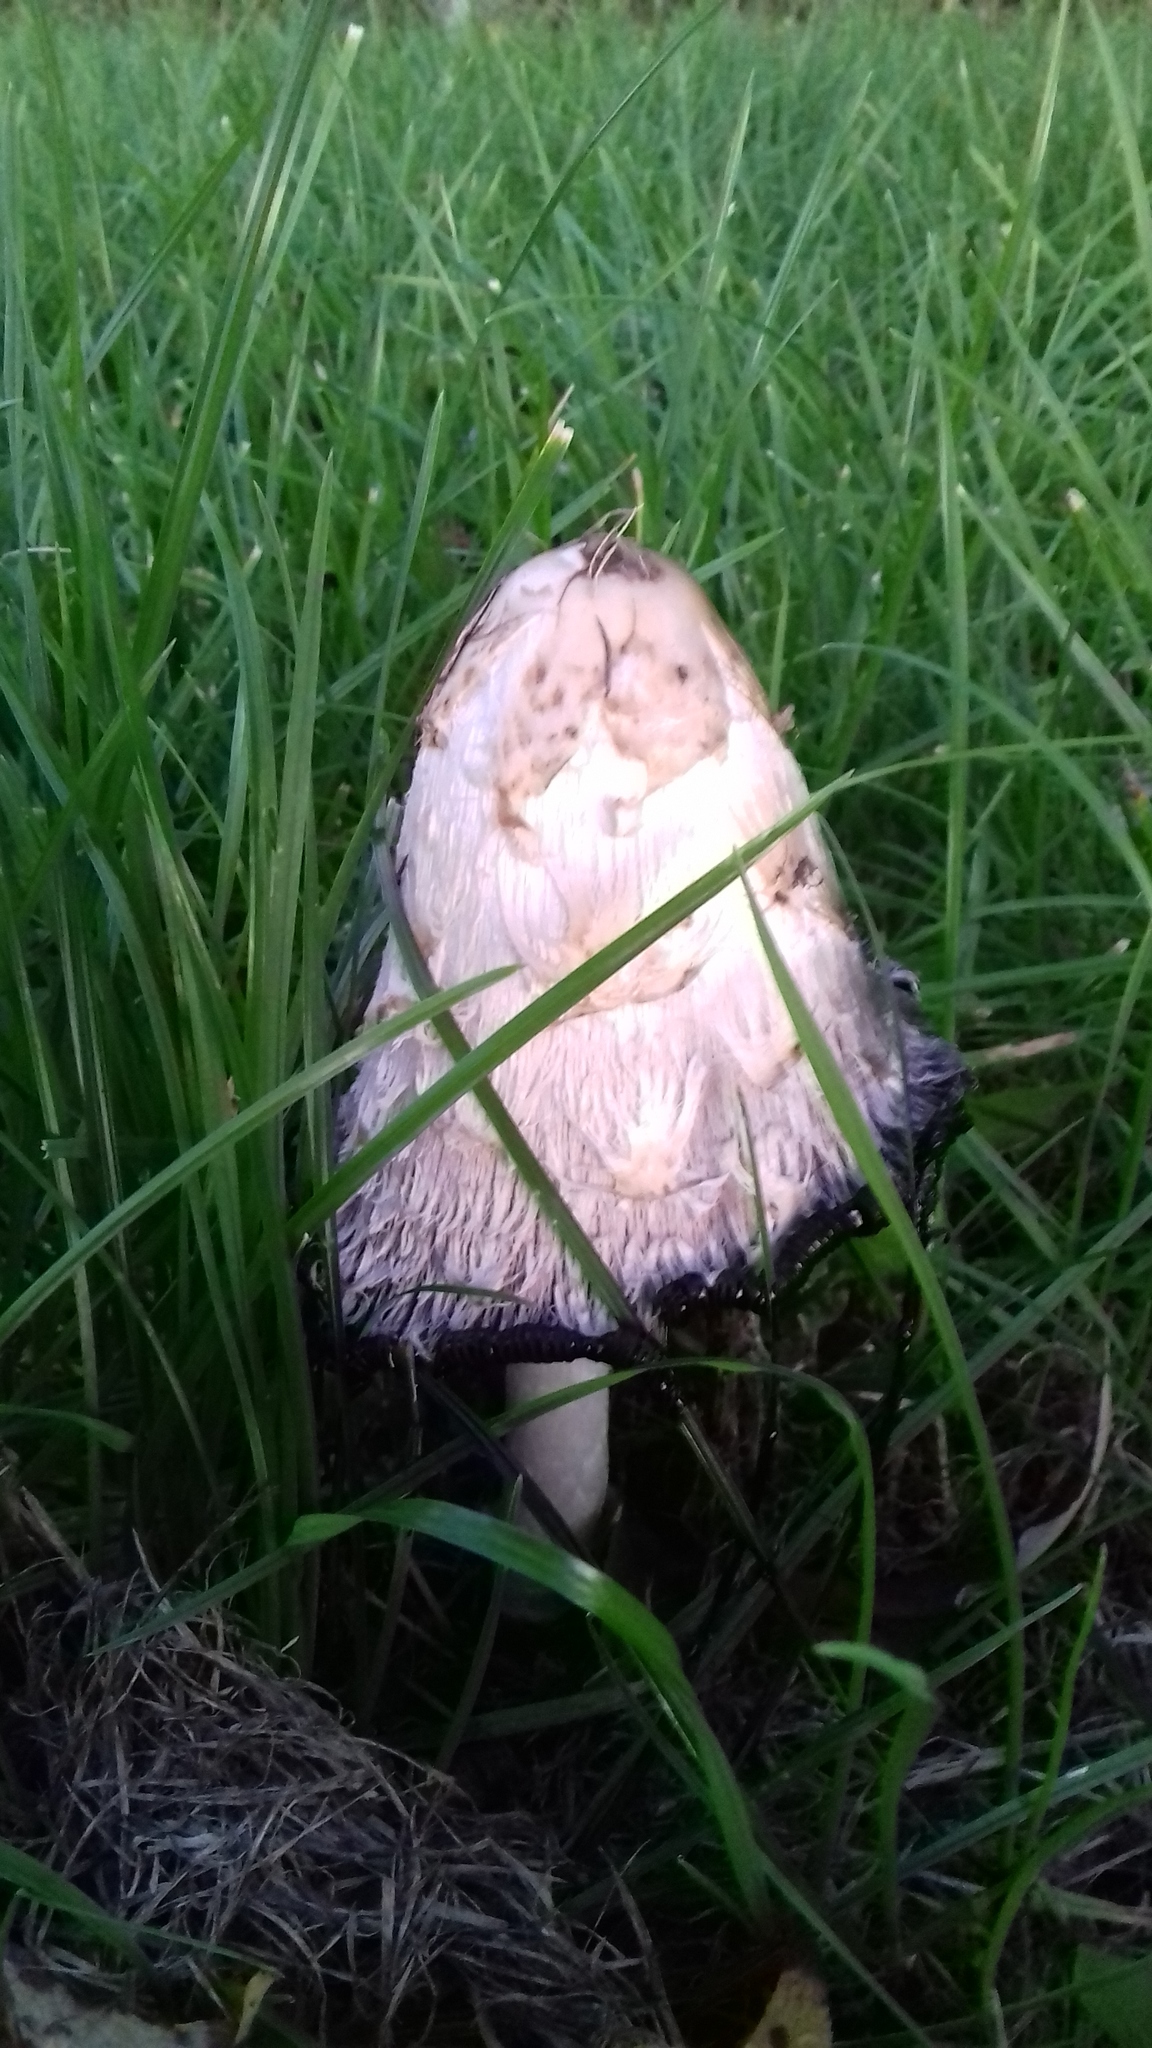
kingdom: Fungi
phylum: Basidiomycota
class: Agaricomycetes
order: Agaricales
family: Agaricaceae
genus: Coprinus
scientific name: Coprinus comatus
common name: Lawyer's wig
